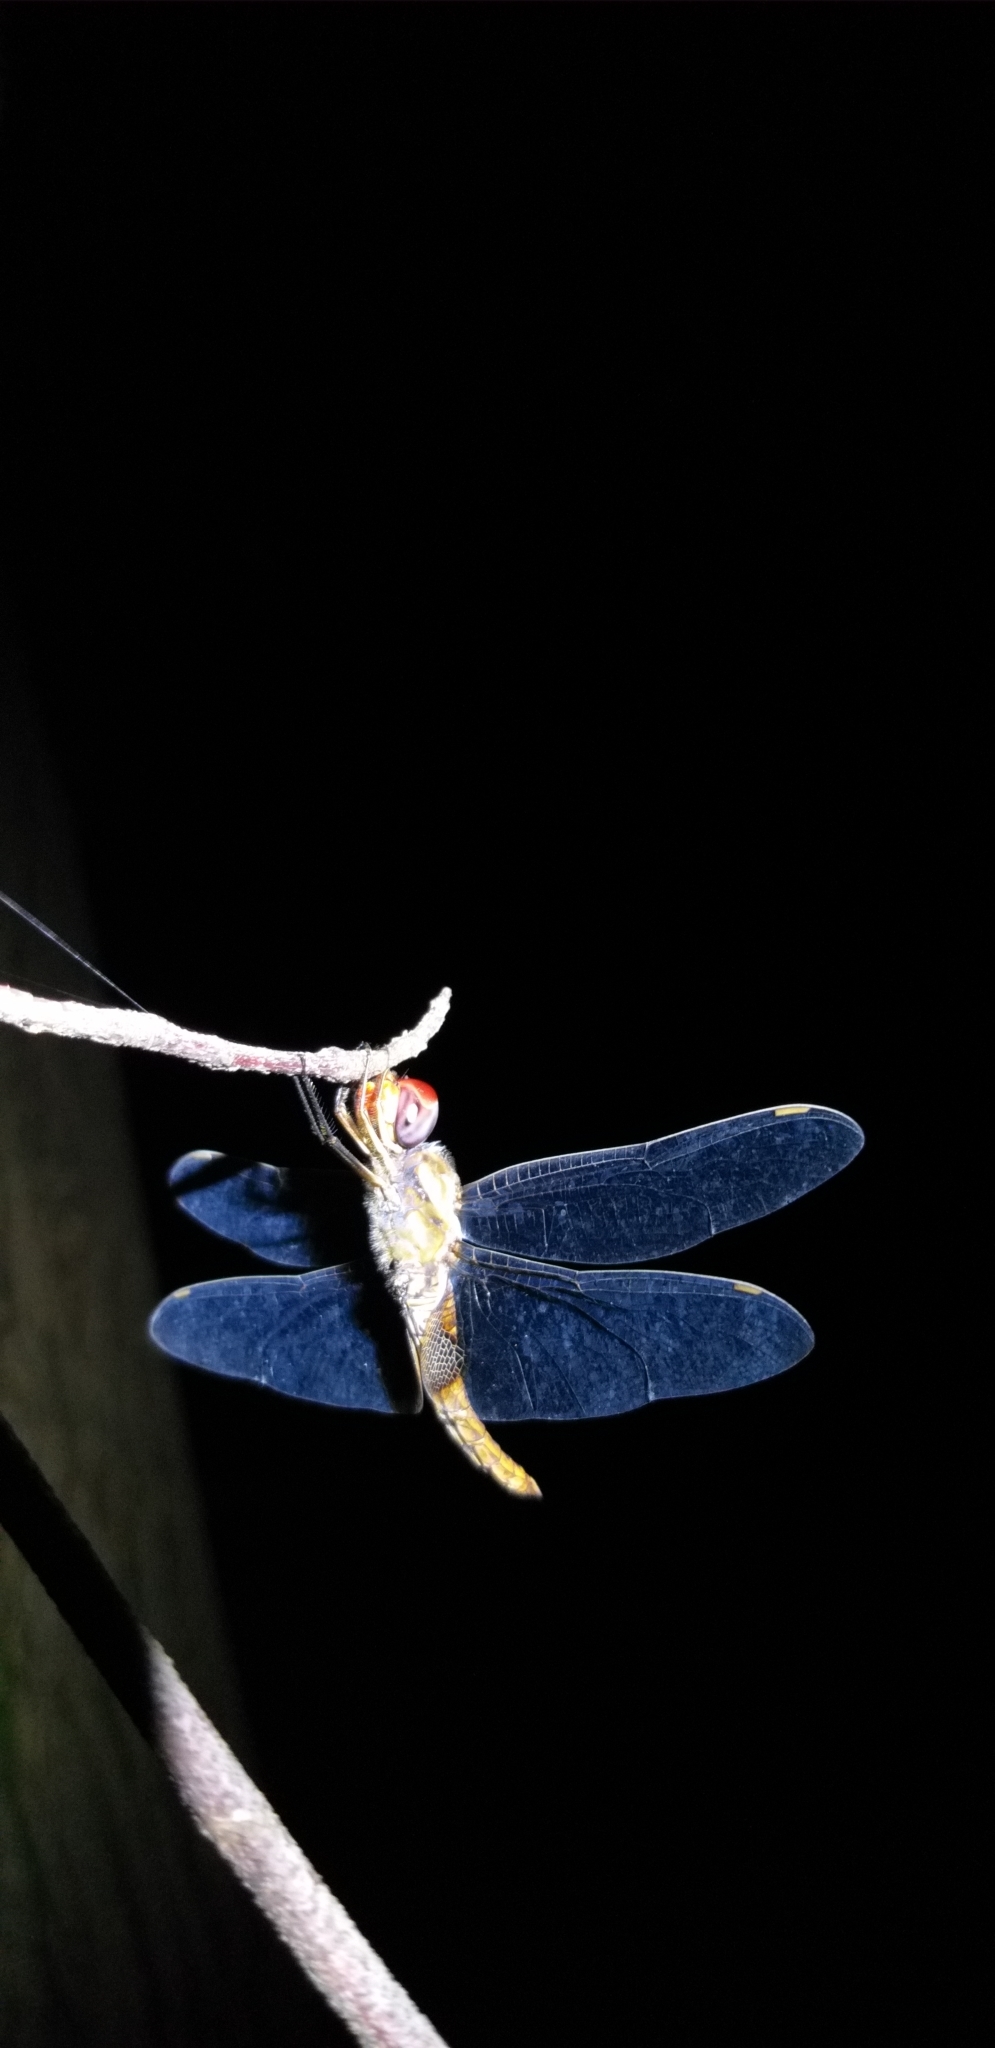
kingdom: Animalia
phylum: Arthropoda
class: Insecta
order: Odonata
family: Libellulidae
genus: Pantala
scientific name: Pantala hymenaea
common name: Spot-winged glider
